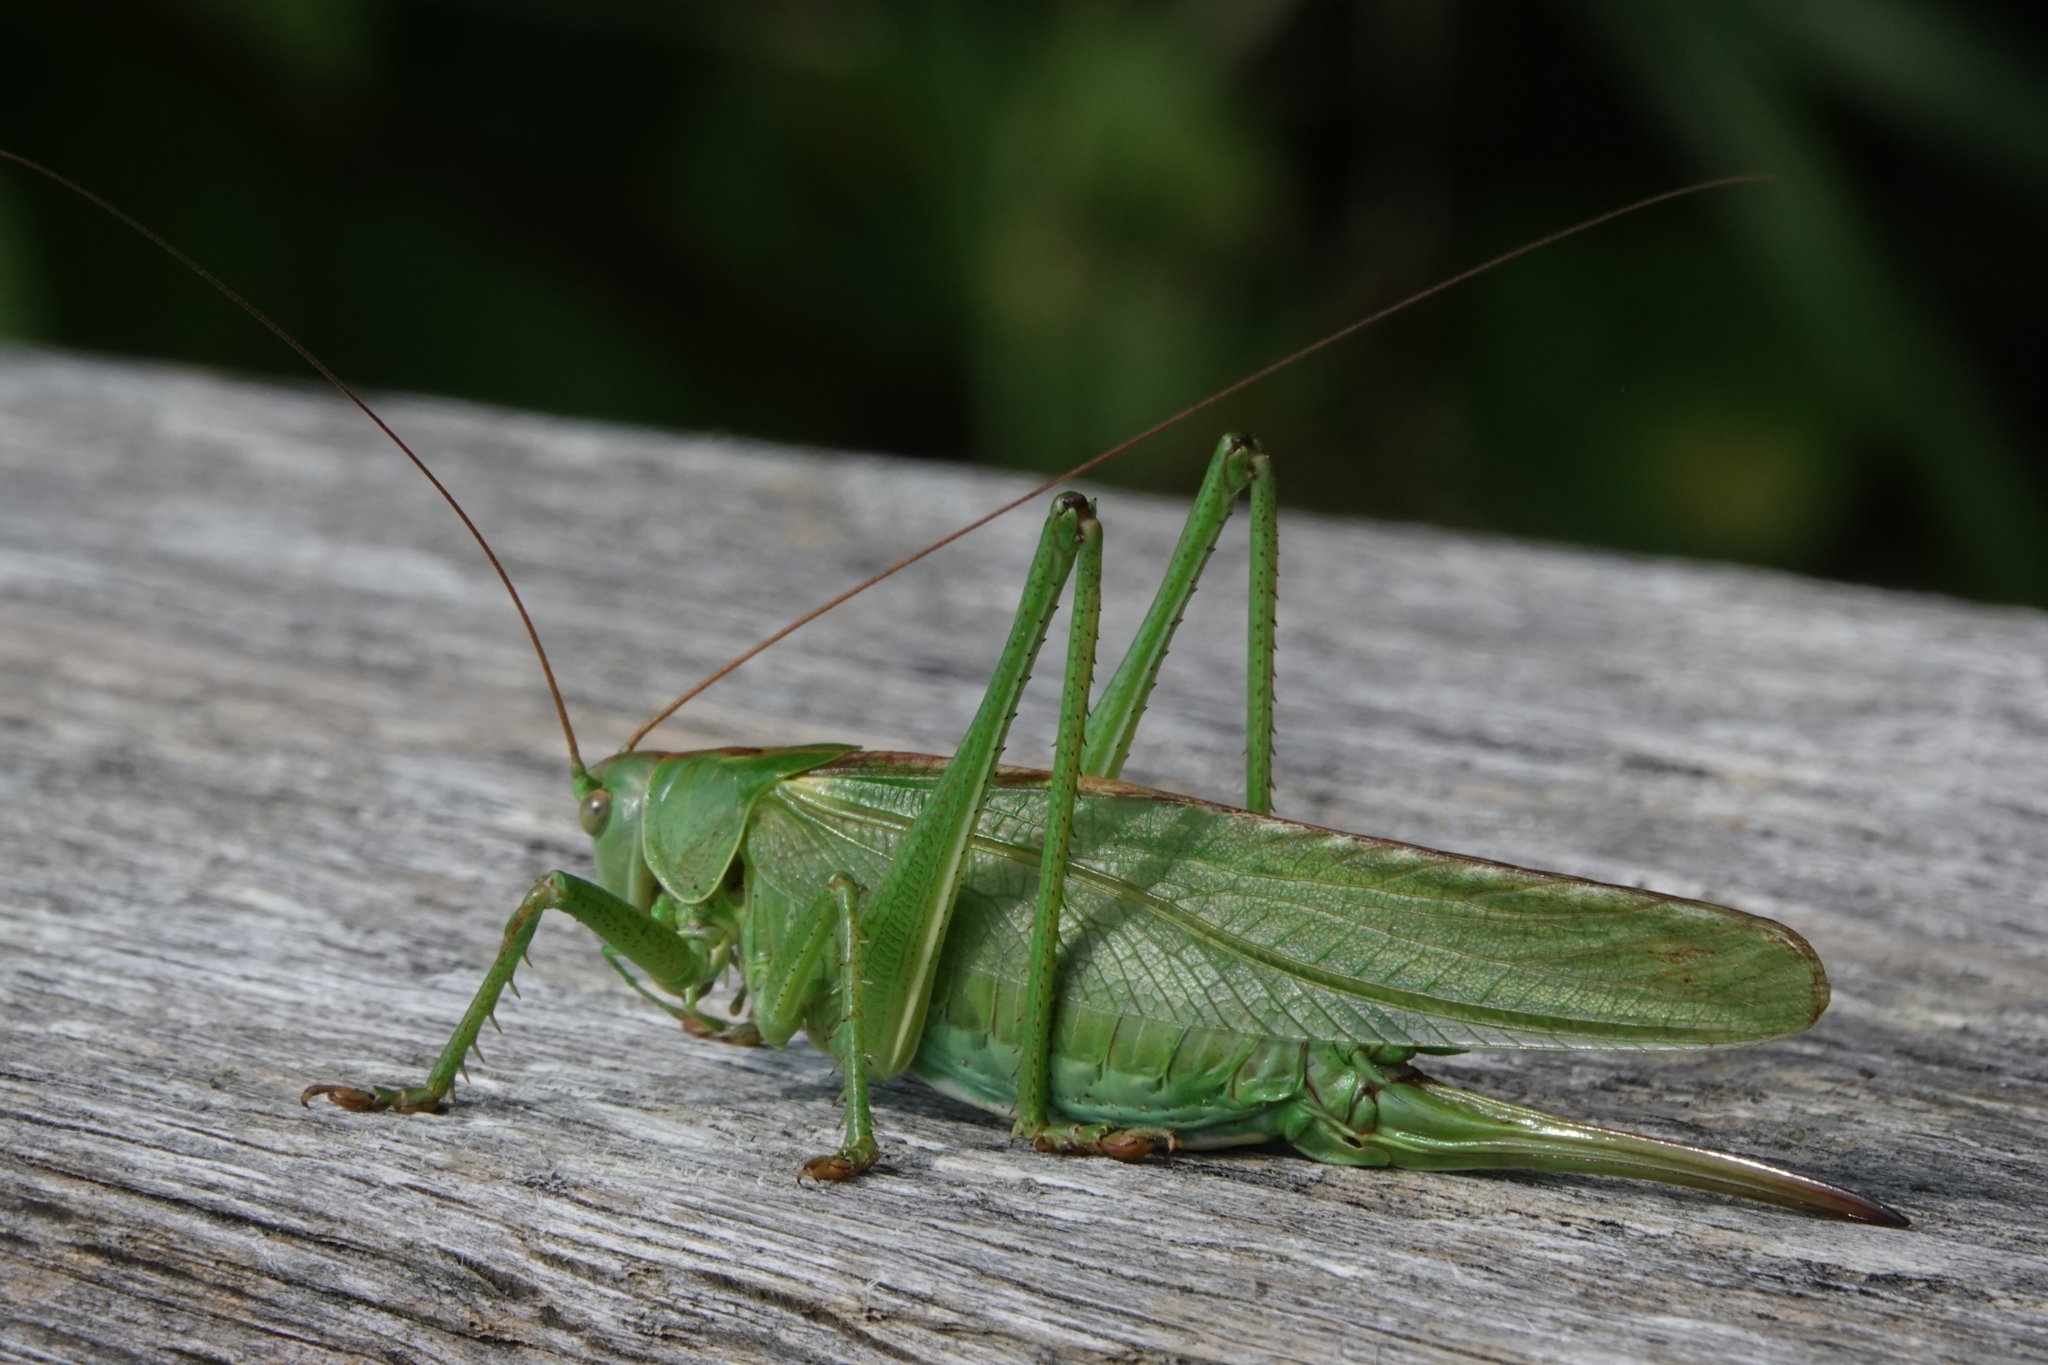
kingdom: Animalia
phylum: Arthropoda
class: Insecta
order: Orthoptera
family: Tettigoniidae
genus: Tettigonia
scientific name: Tettigonia viridissima
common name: Great green bush-cricket
